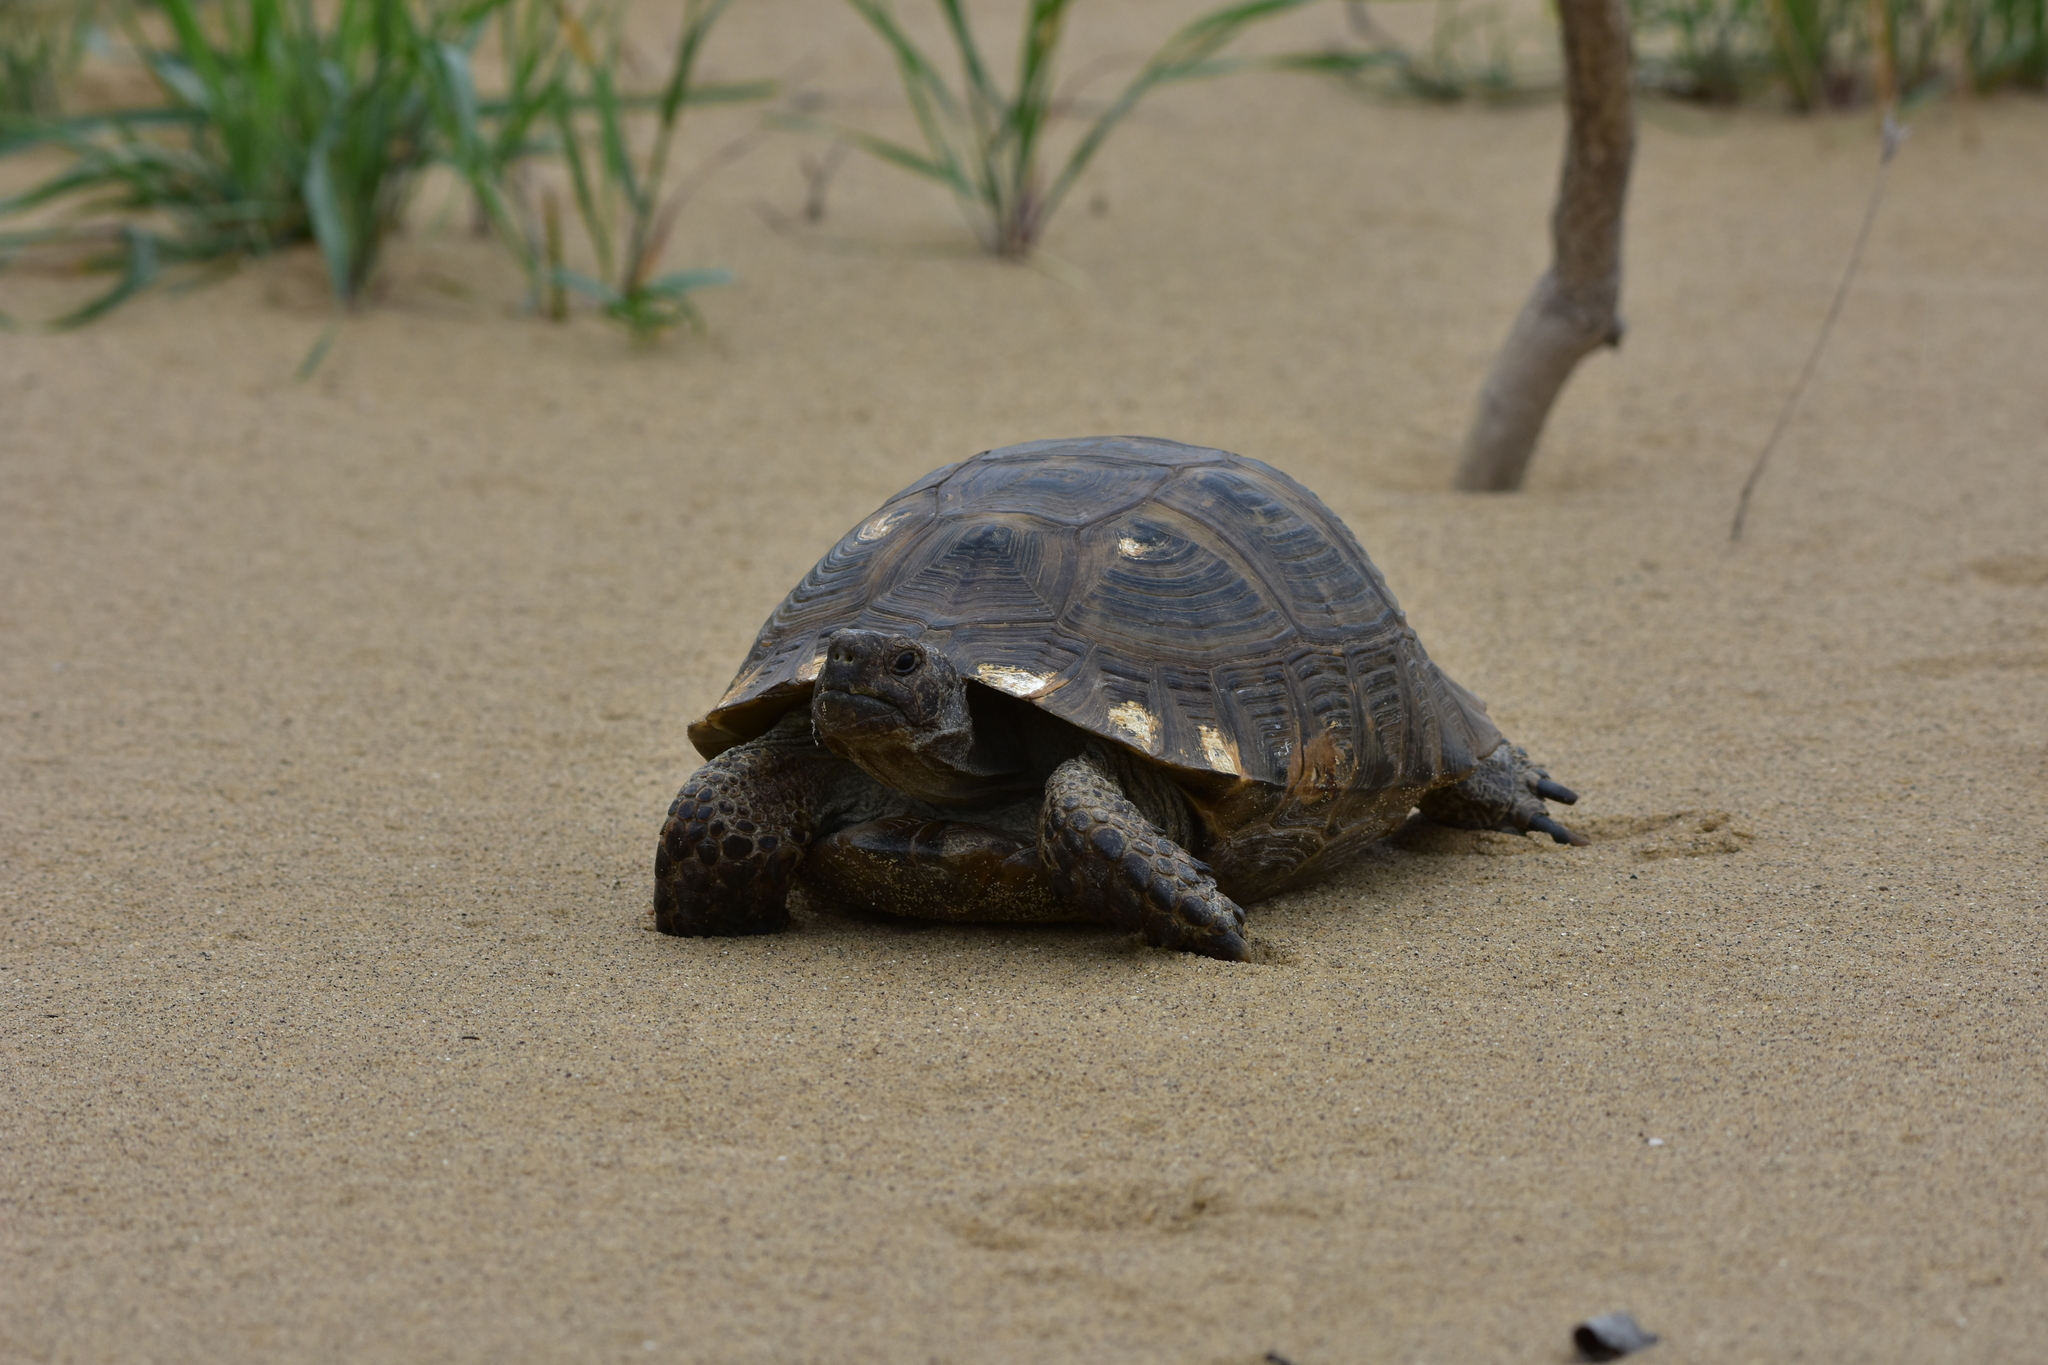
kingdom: Animalia
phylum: Chordata
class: Testudines
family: Testudinidae
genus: Testudo
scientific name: Testudo graeca
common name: Common tortoise
